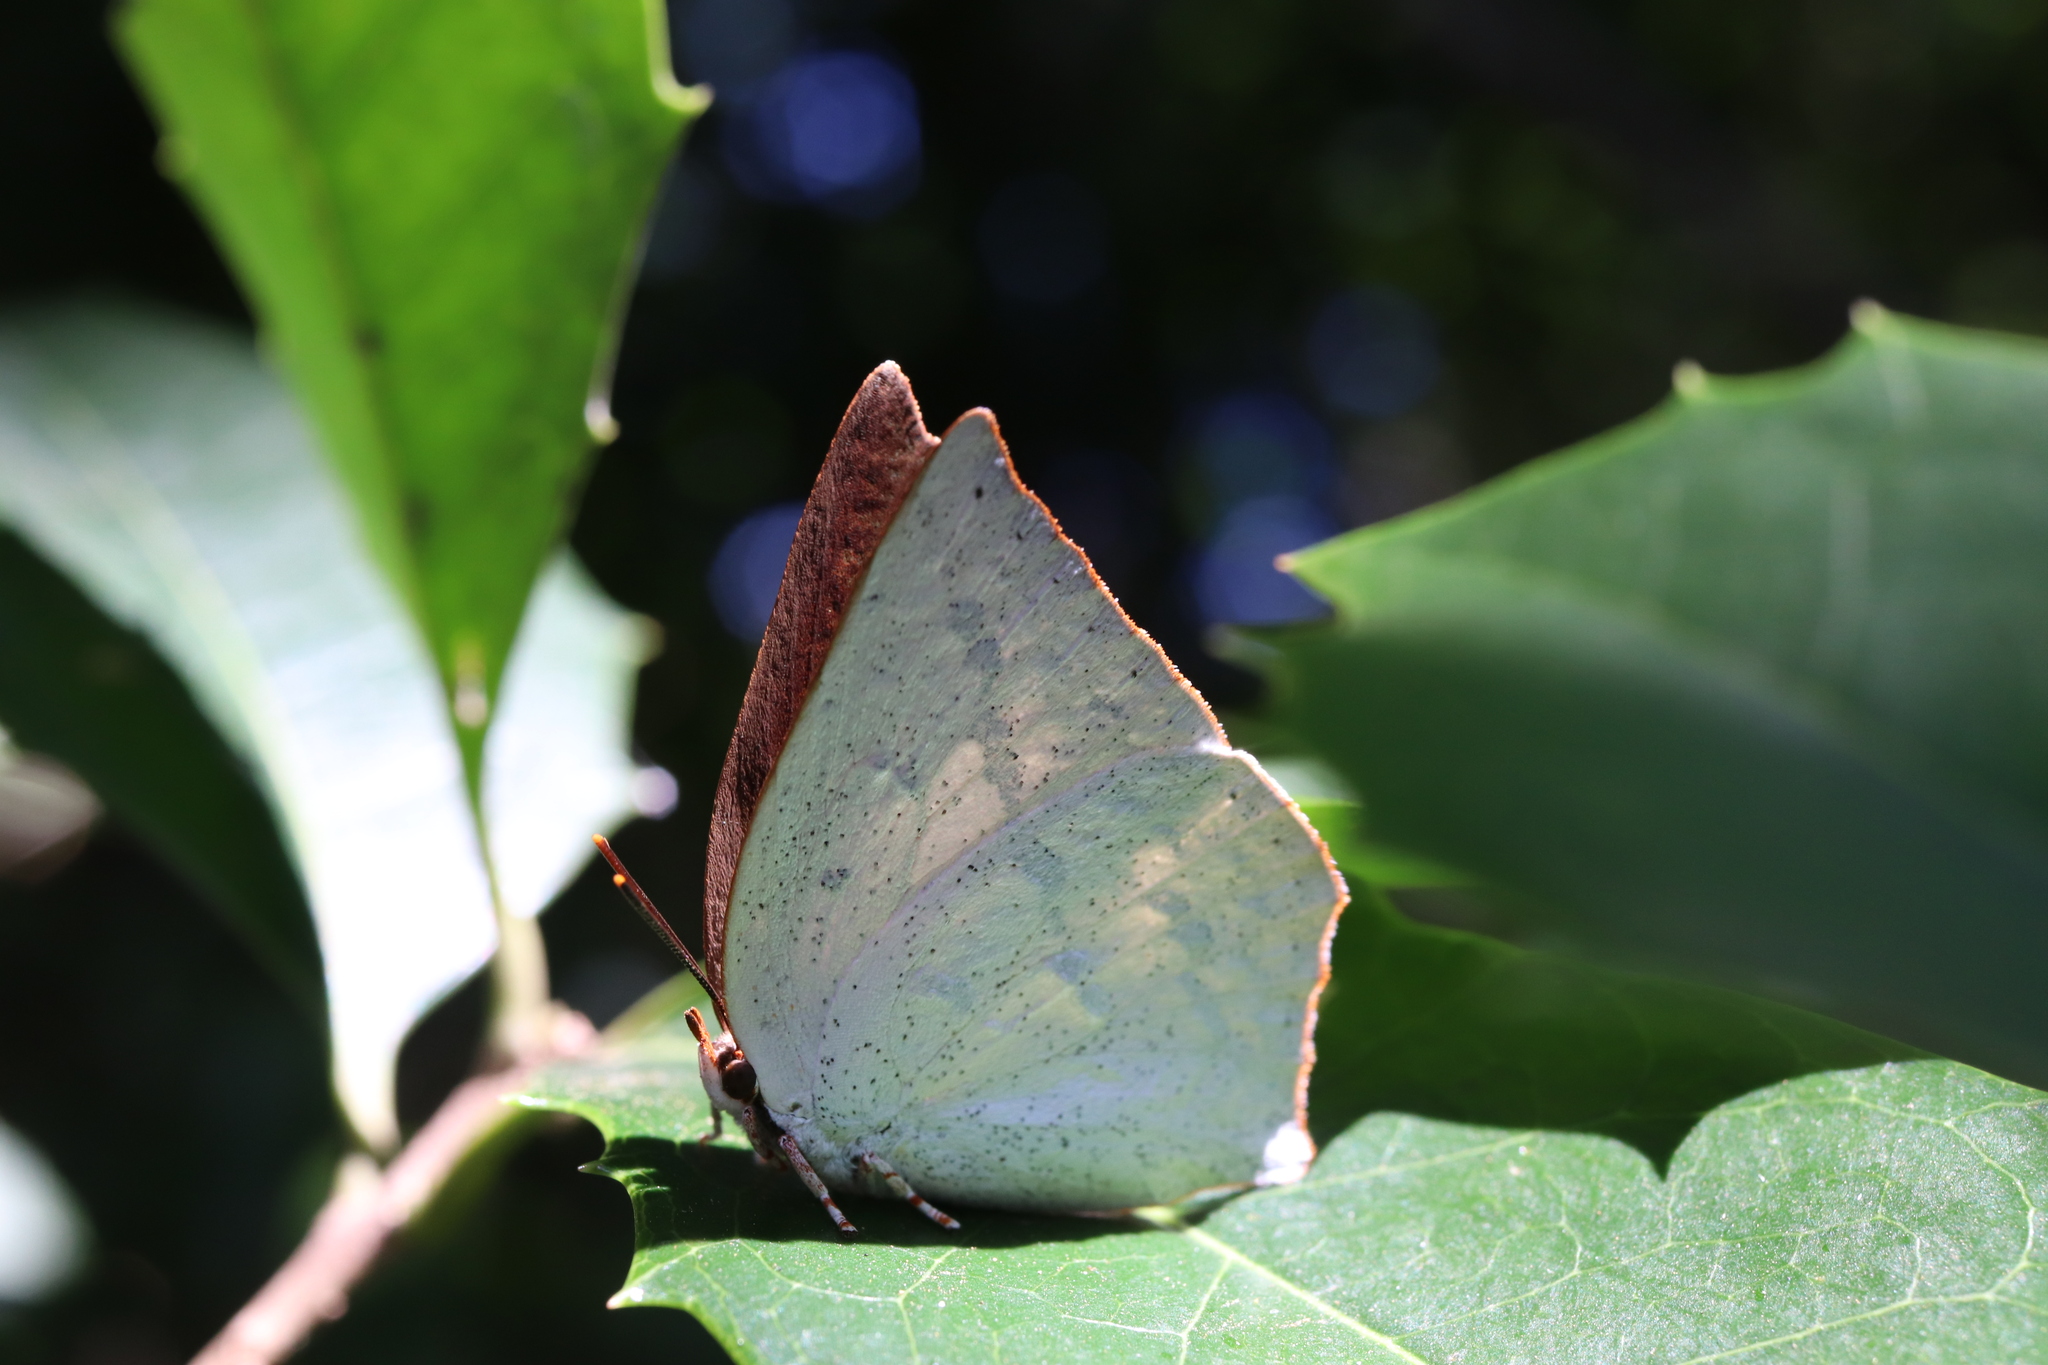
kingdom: Animalia
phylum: Arthropoda
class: Insecta
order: Lepidoptera
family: Lycaenidae
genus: Curetis
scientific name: Curetis acuta
